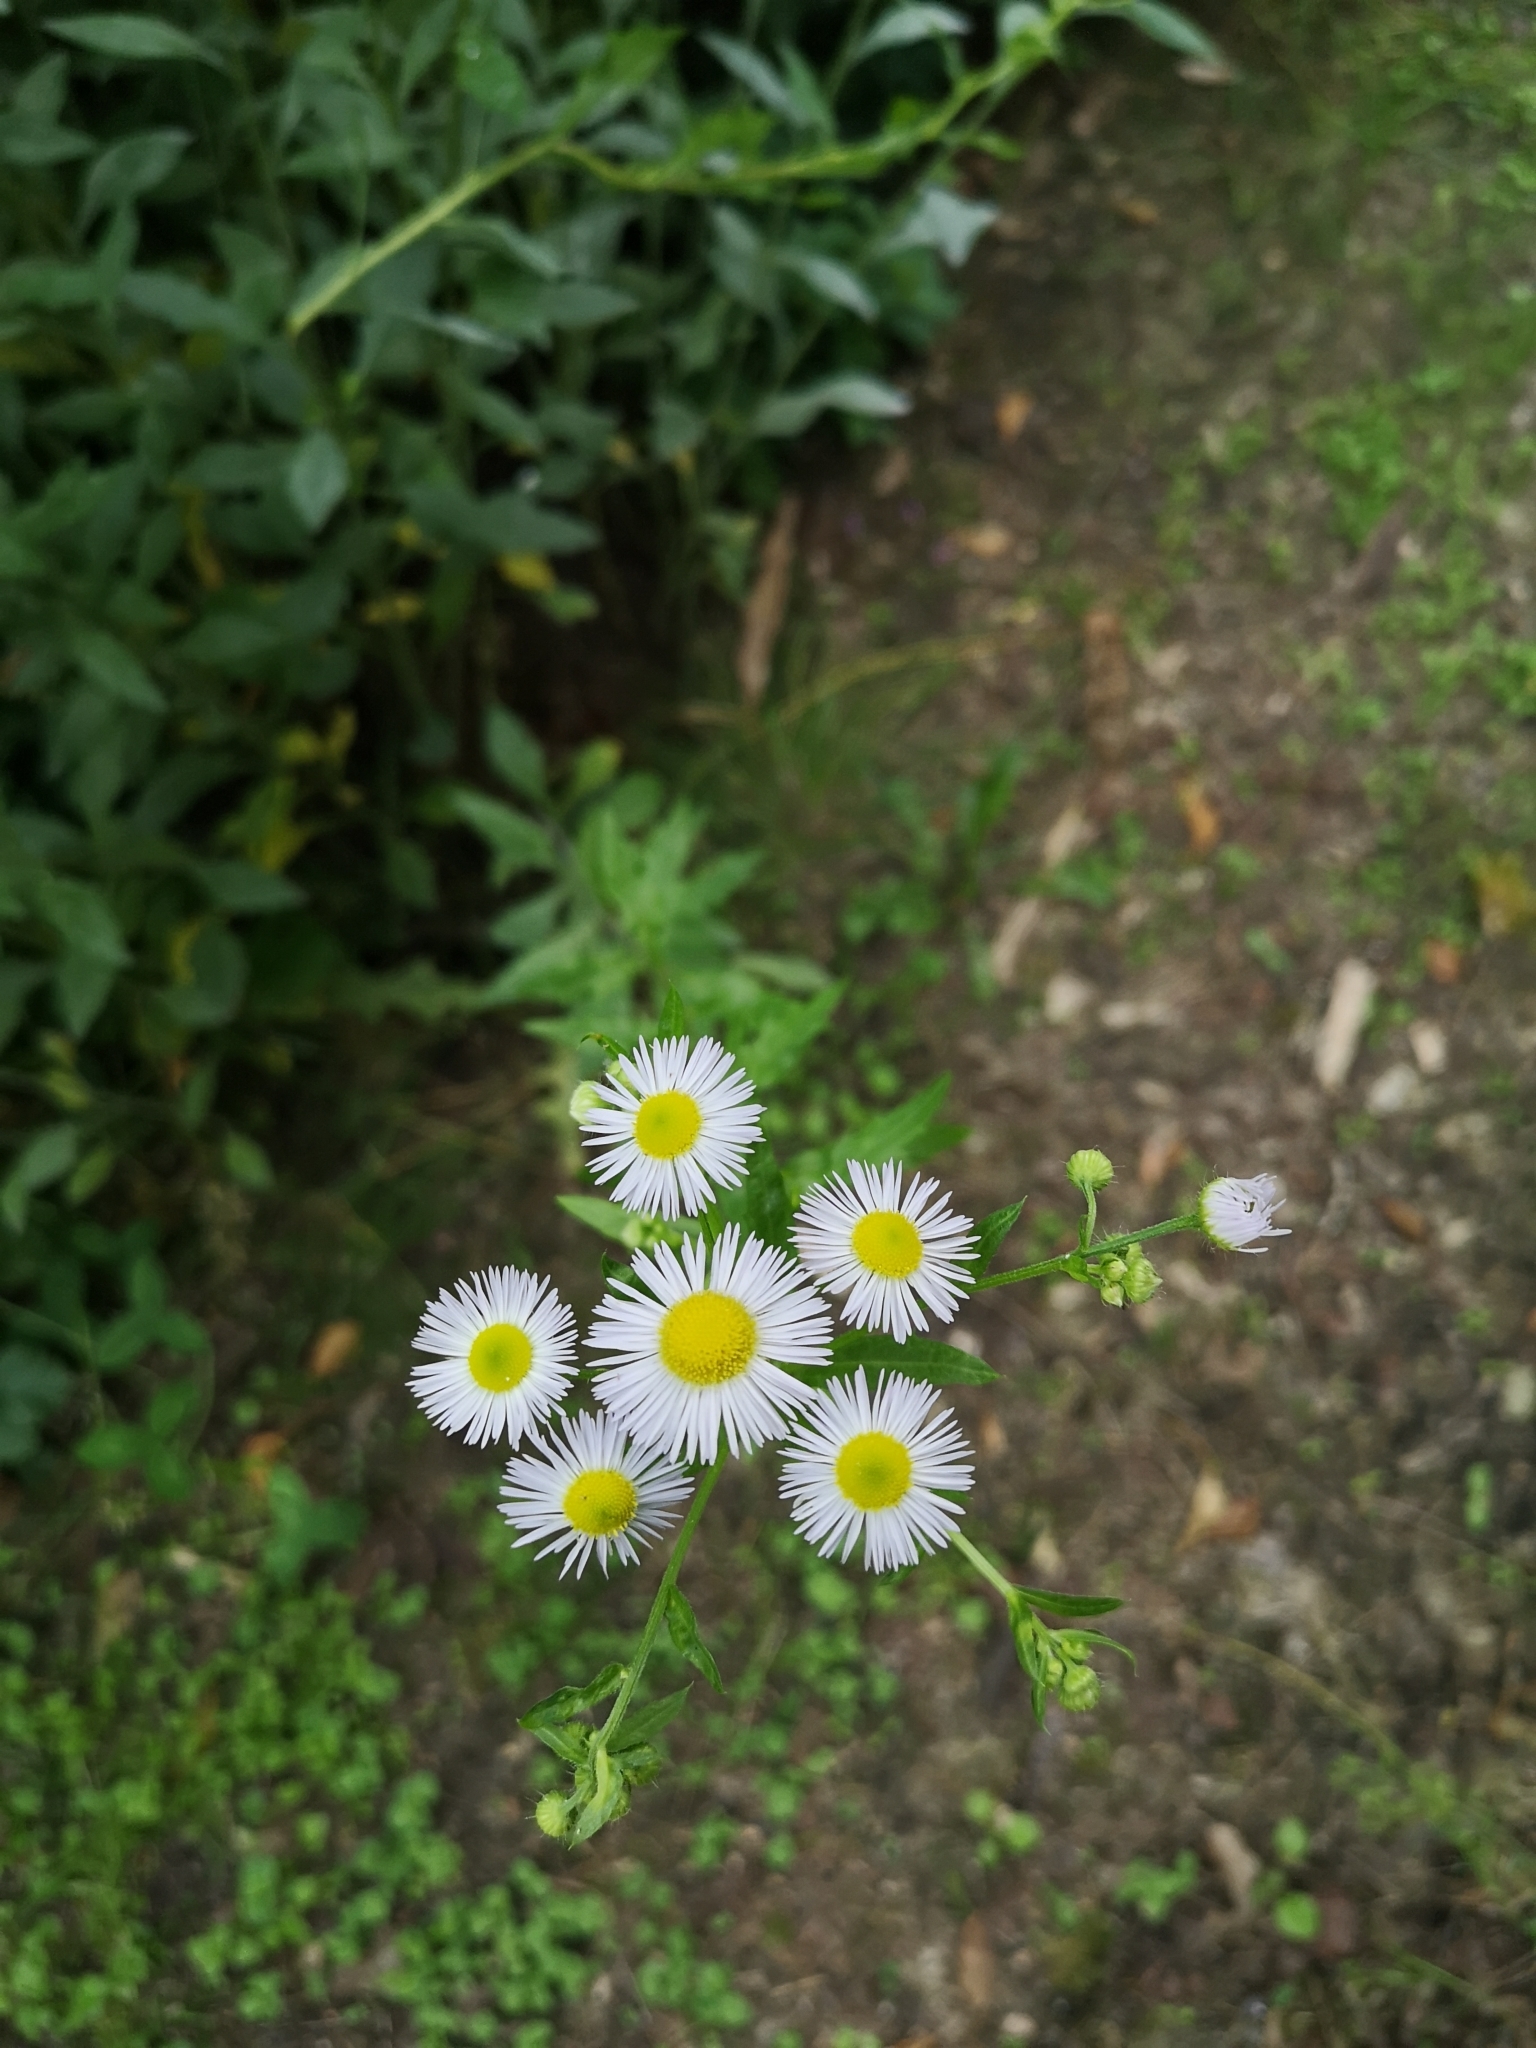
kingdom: Plantae
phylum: Tracheophyta
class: Magnoliopsida
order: Asterales
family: Asteraceae
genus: Erigeron
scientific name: Erigeron annuus
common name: Tall fleabane
